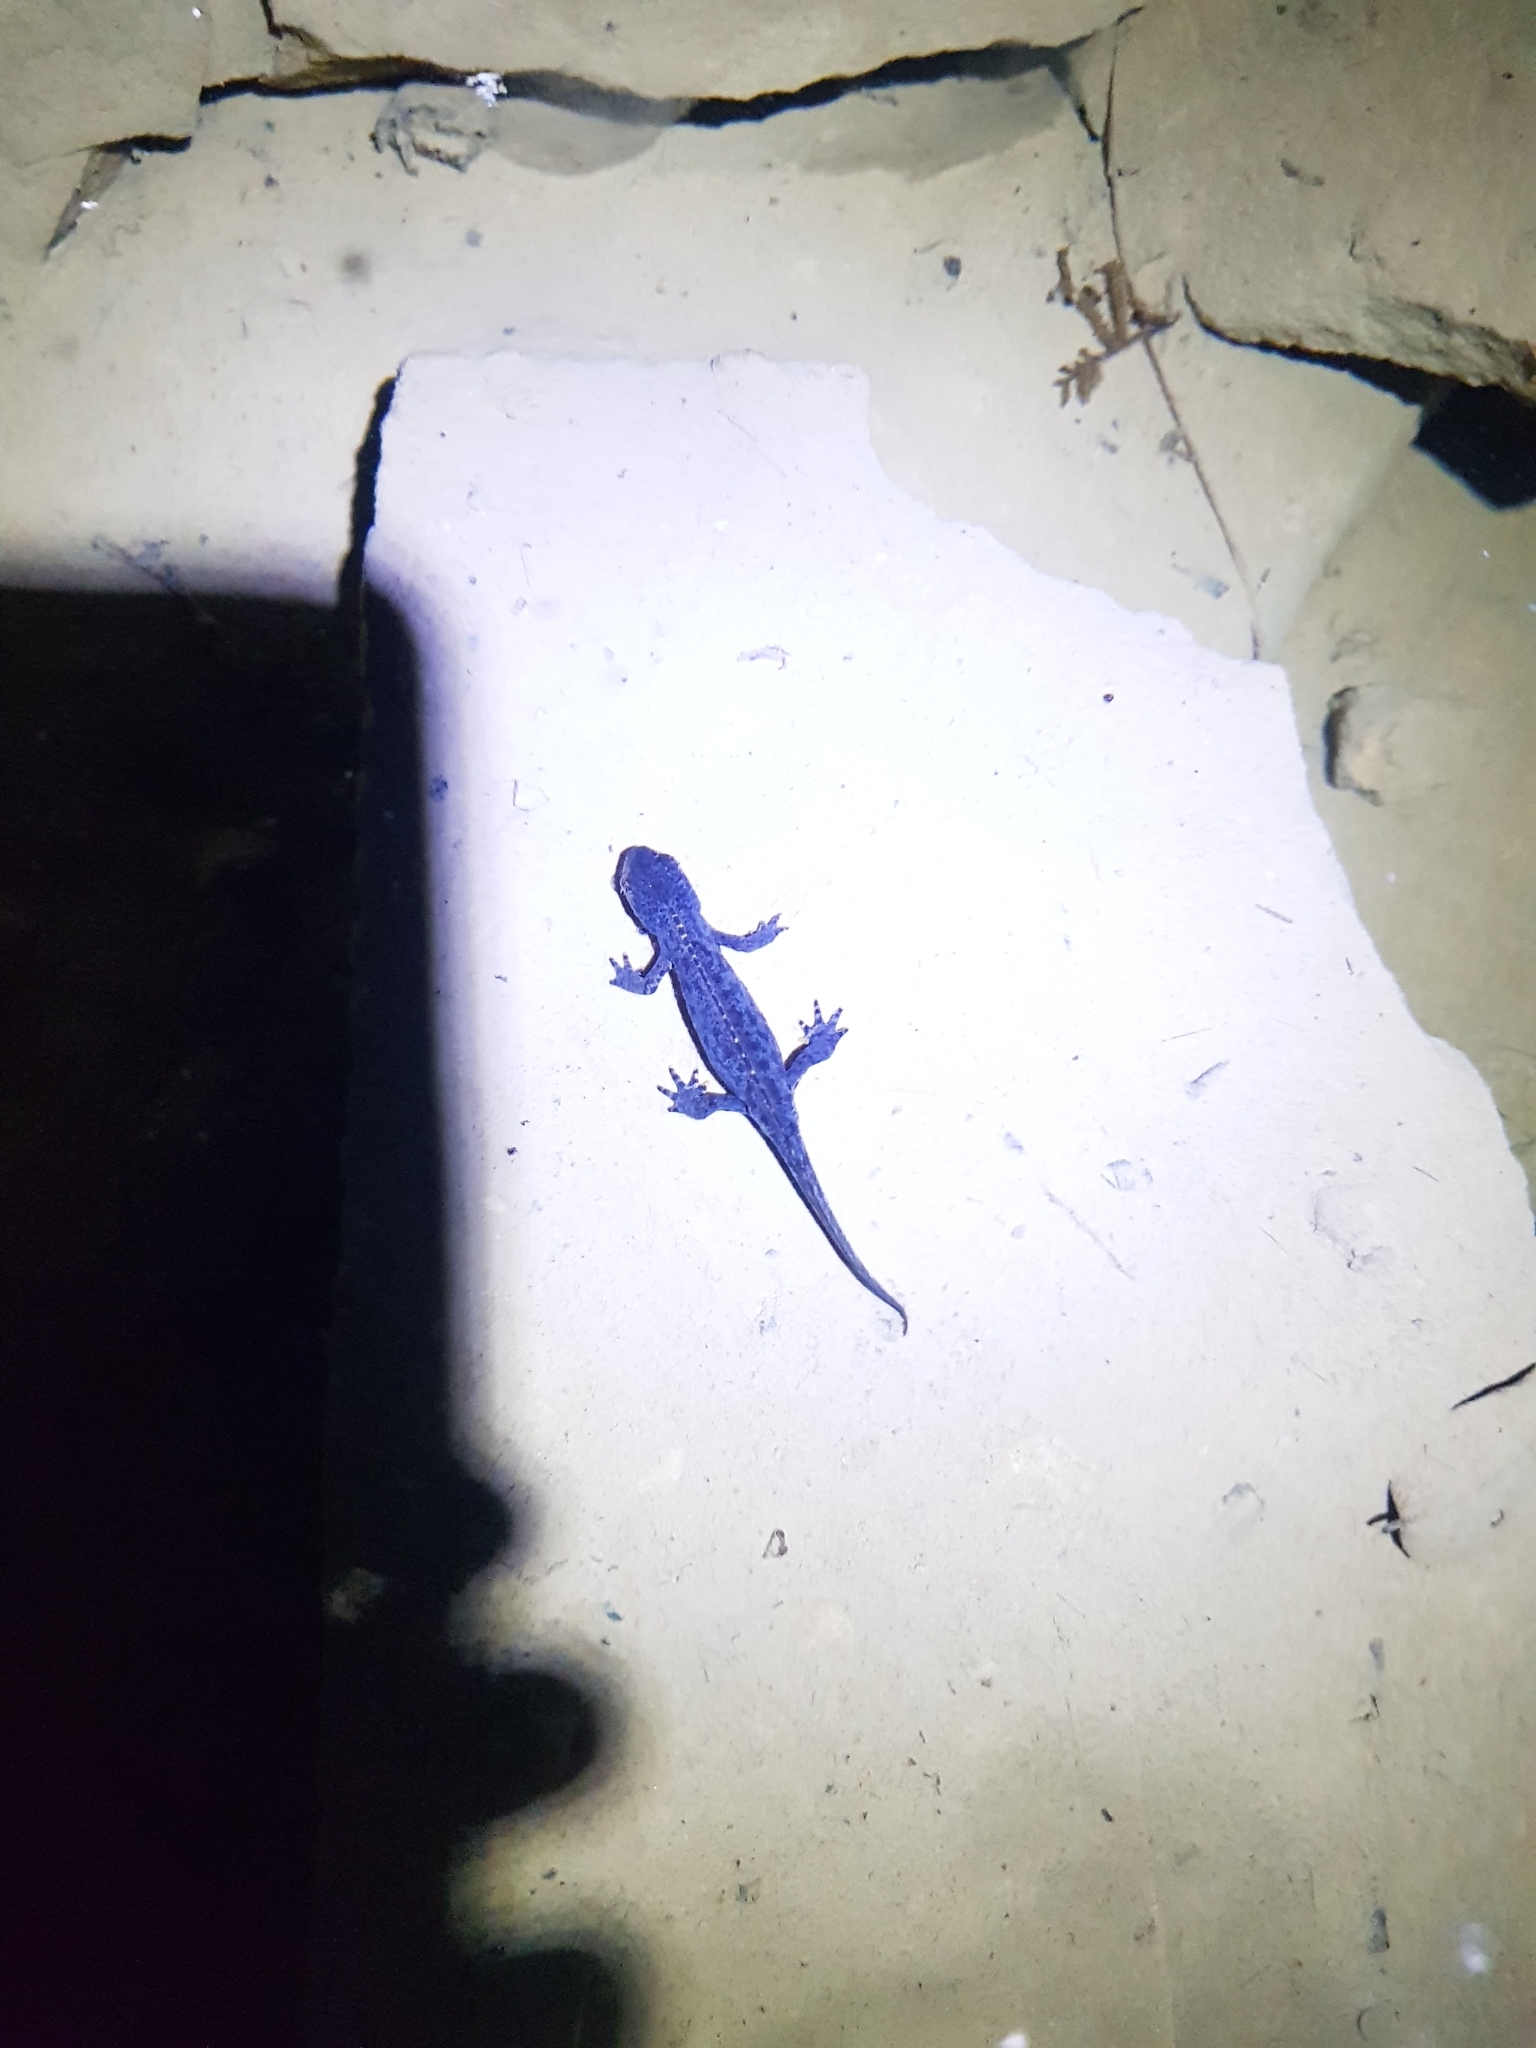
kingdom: Animalia
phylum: Chordata
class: Amphibia
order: Caudata
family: Salamandridae
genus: Ichthyosaura
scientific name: Ichthyosaura alpestris
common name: Alpine newt
